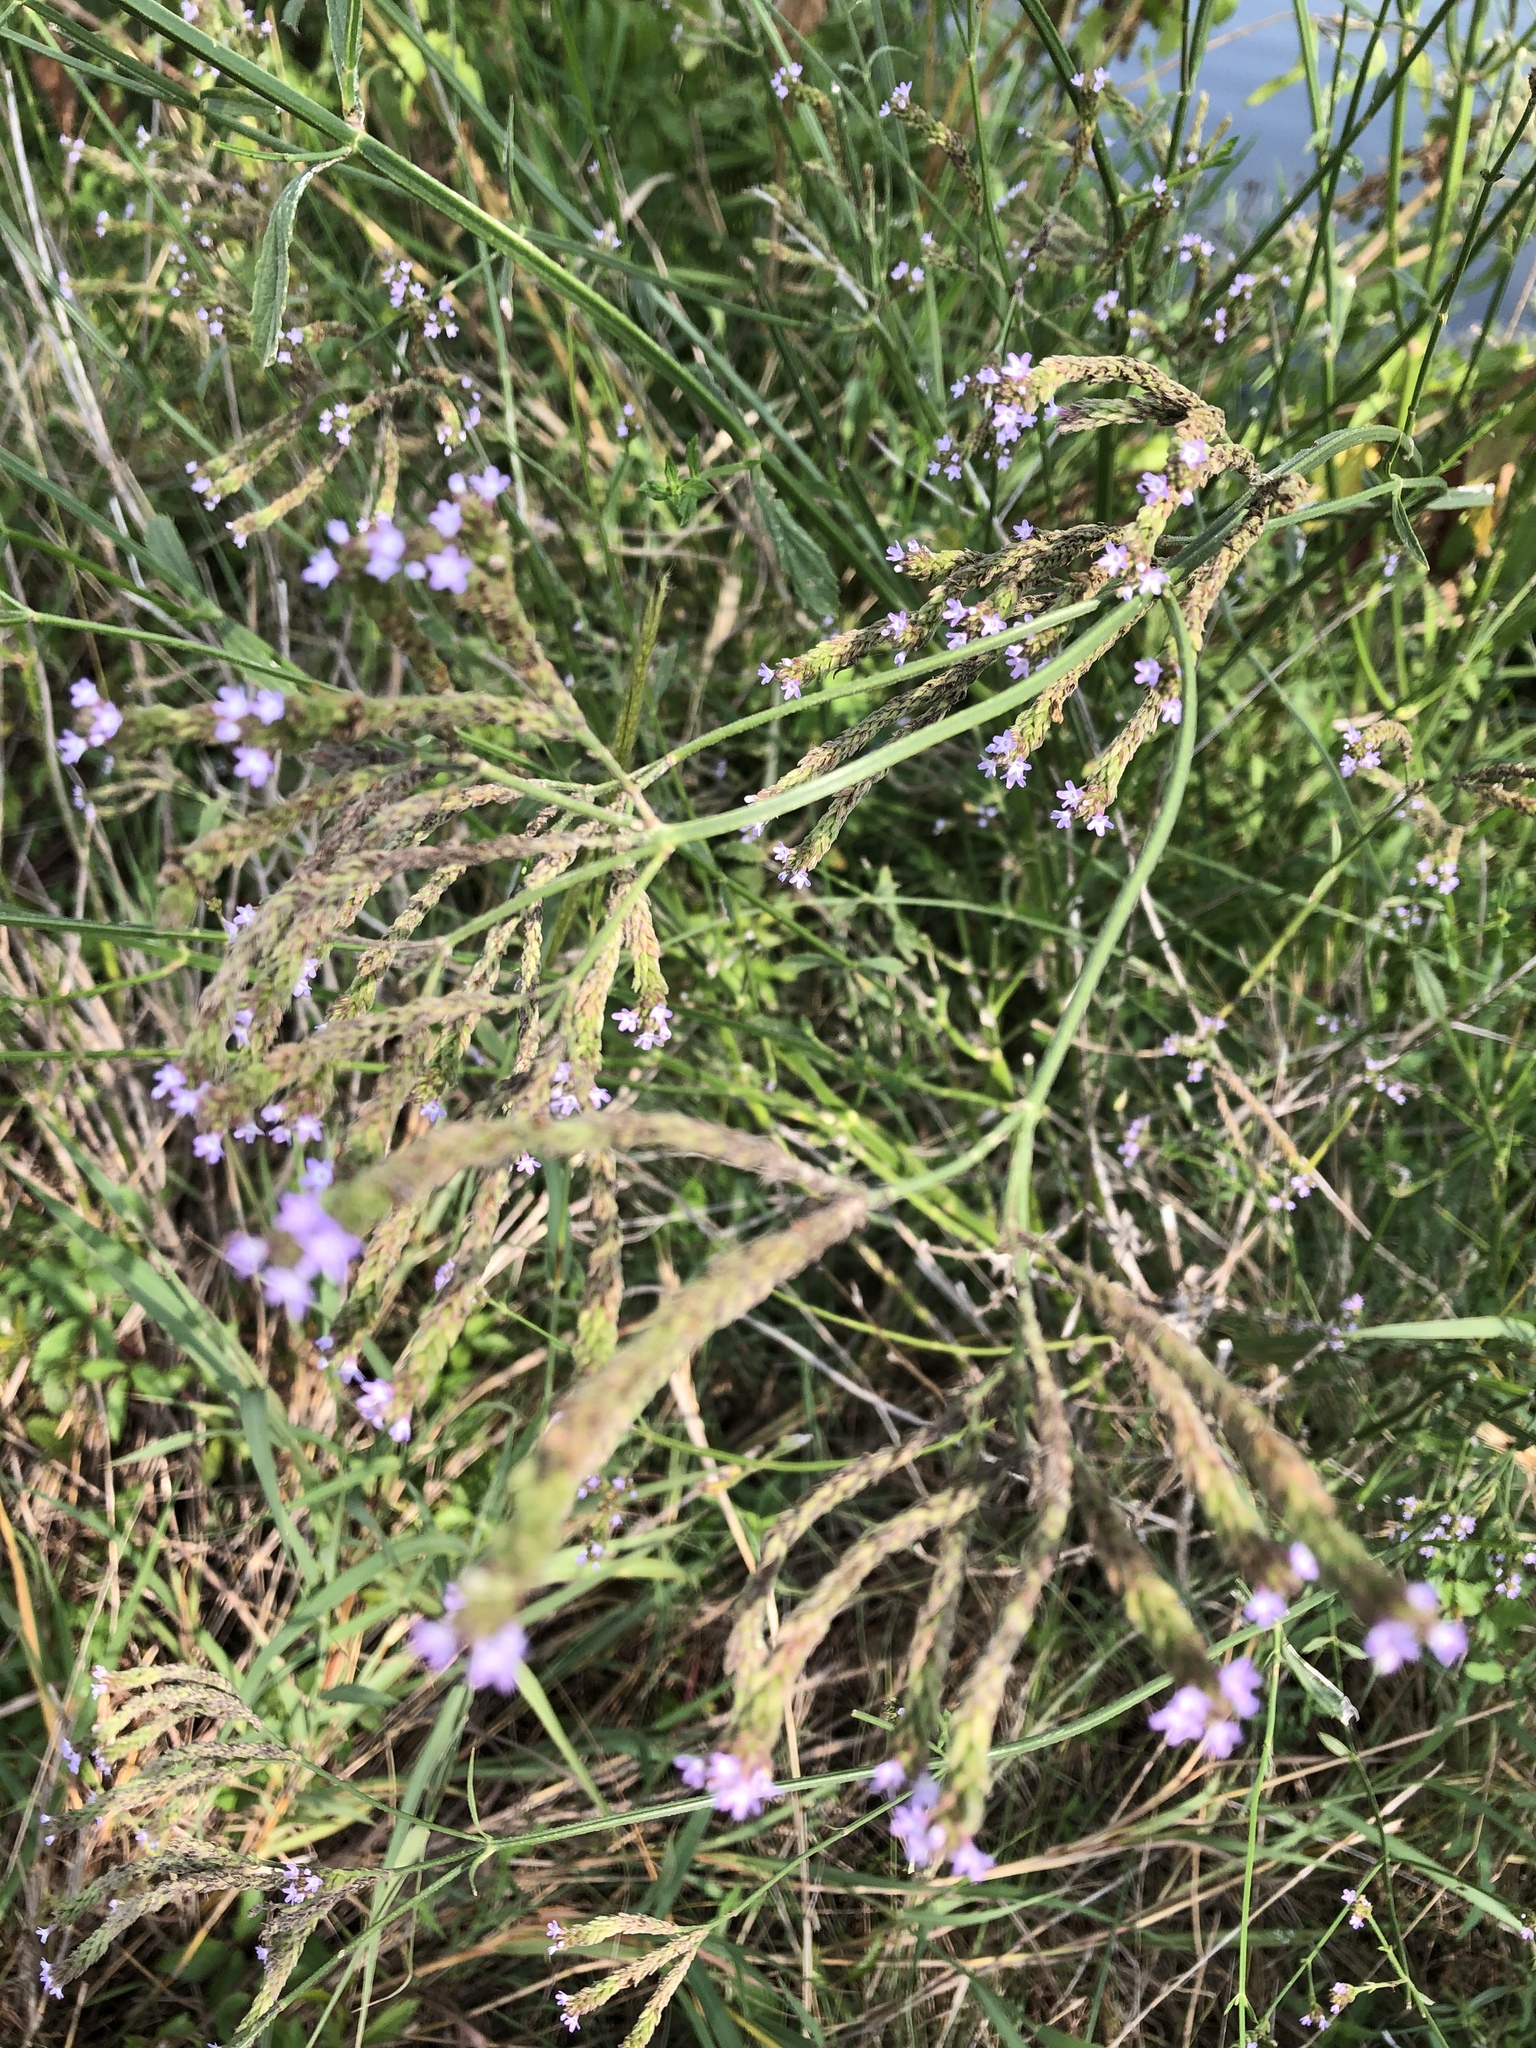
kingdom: Plantae
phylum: Tracheophyta
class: Magnoliopsida
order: Lamiales
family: Verbenaceae
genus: Verbena
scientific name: Verbena brasiliensis
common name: Brazilian vervain
